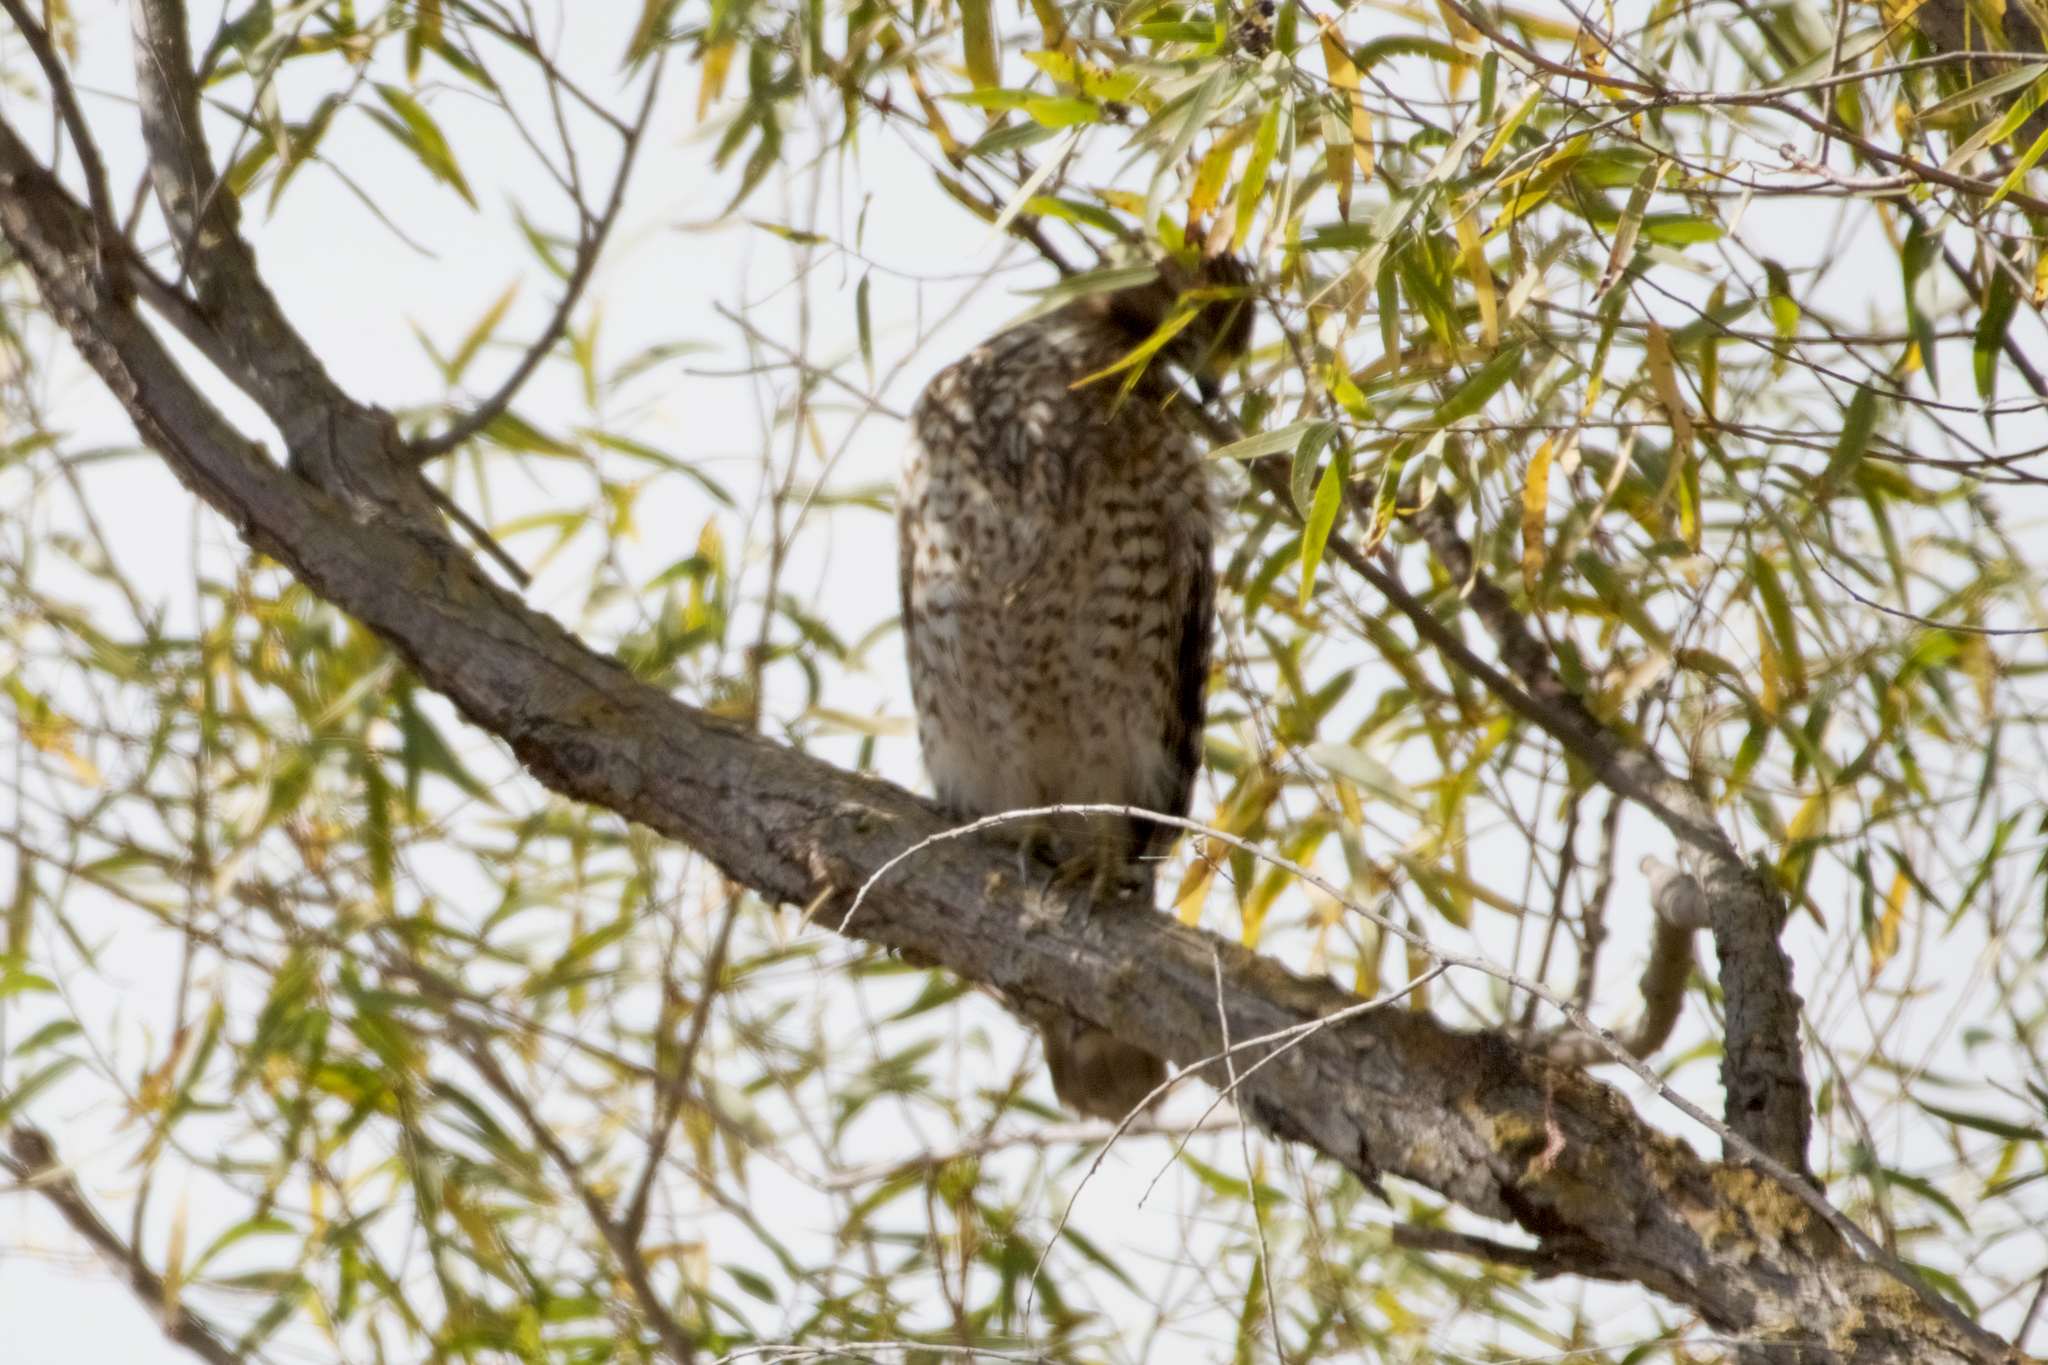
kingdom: Animalia
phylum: Chordata
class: Aves
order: Accipitriformes
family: Accipitridae
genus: Buteo
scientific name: Buteo lineatus
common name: Red-shouldered hawk
